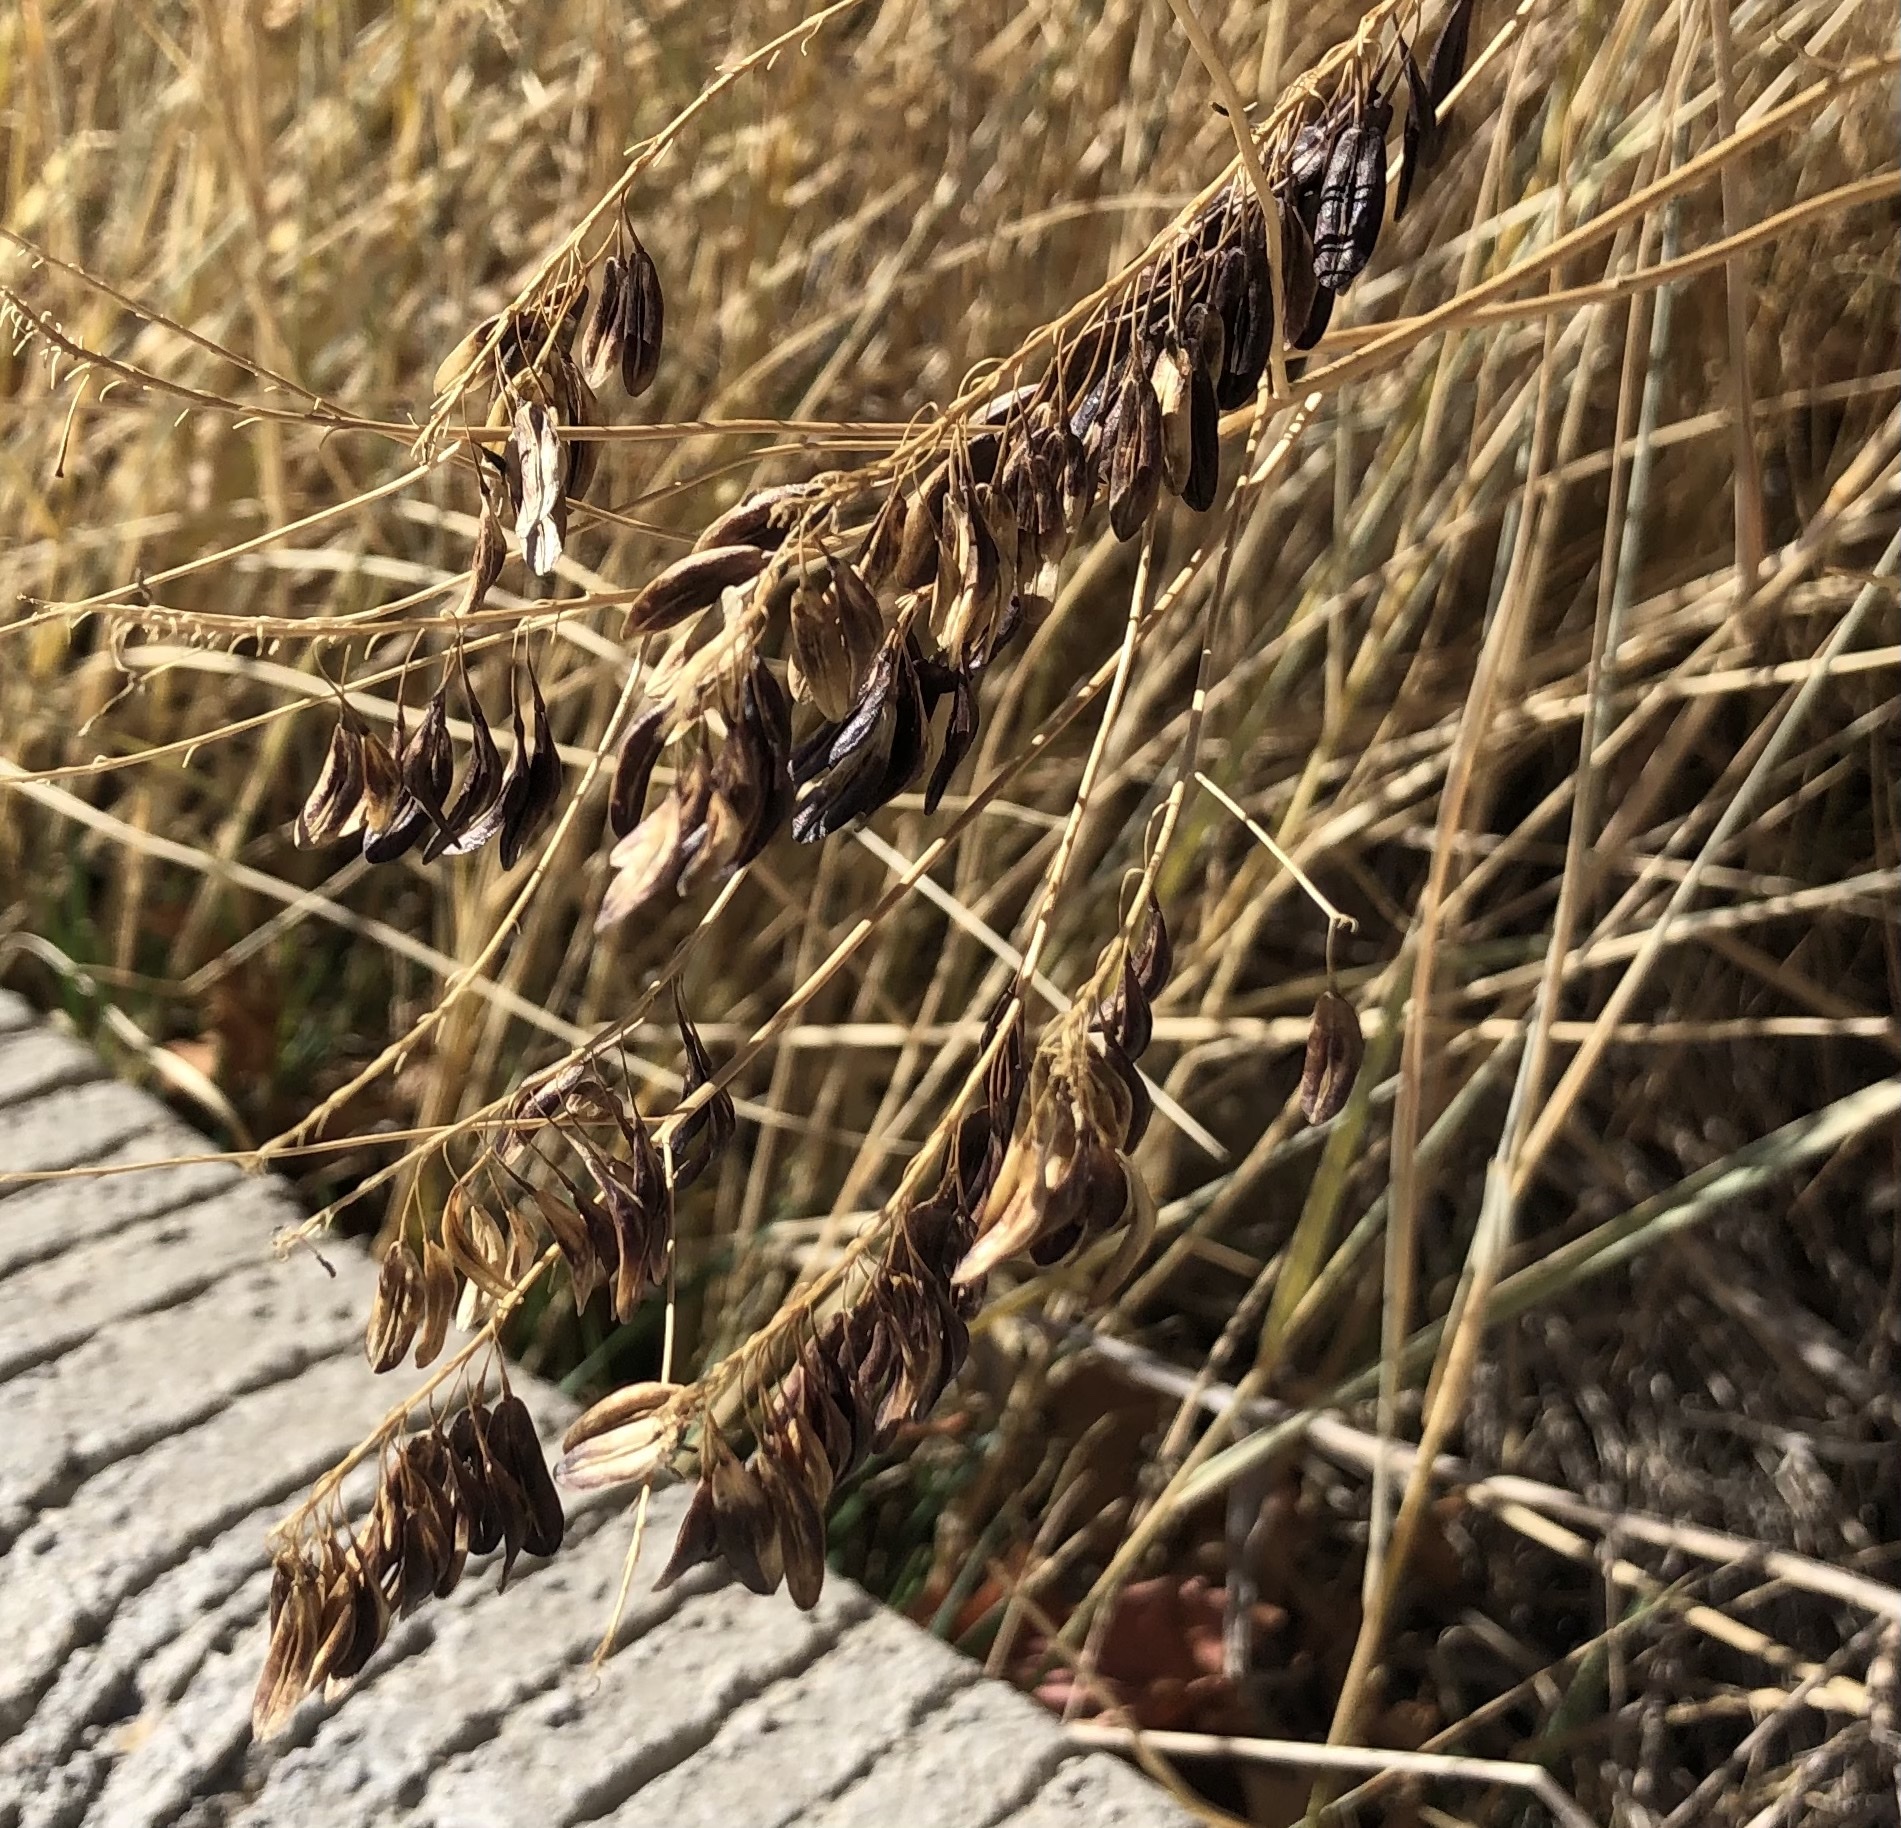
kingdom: Plantae
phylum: Tracheophyta
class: Magnoliopsida
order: Brassicales
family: Brassicaceae
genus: Isatis
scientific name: Isatis tinctoria
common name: Woad
